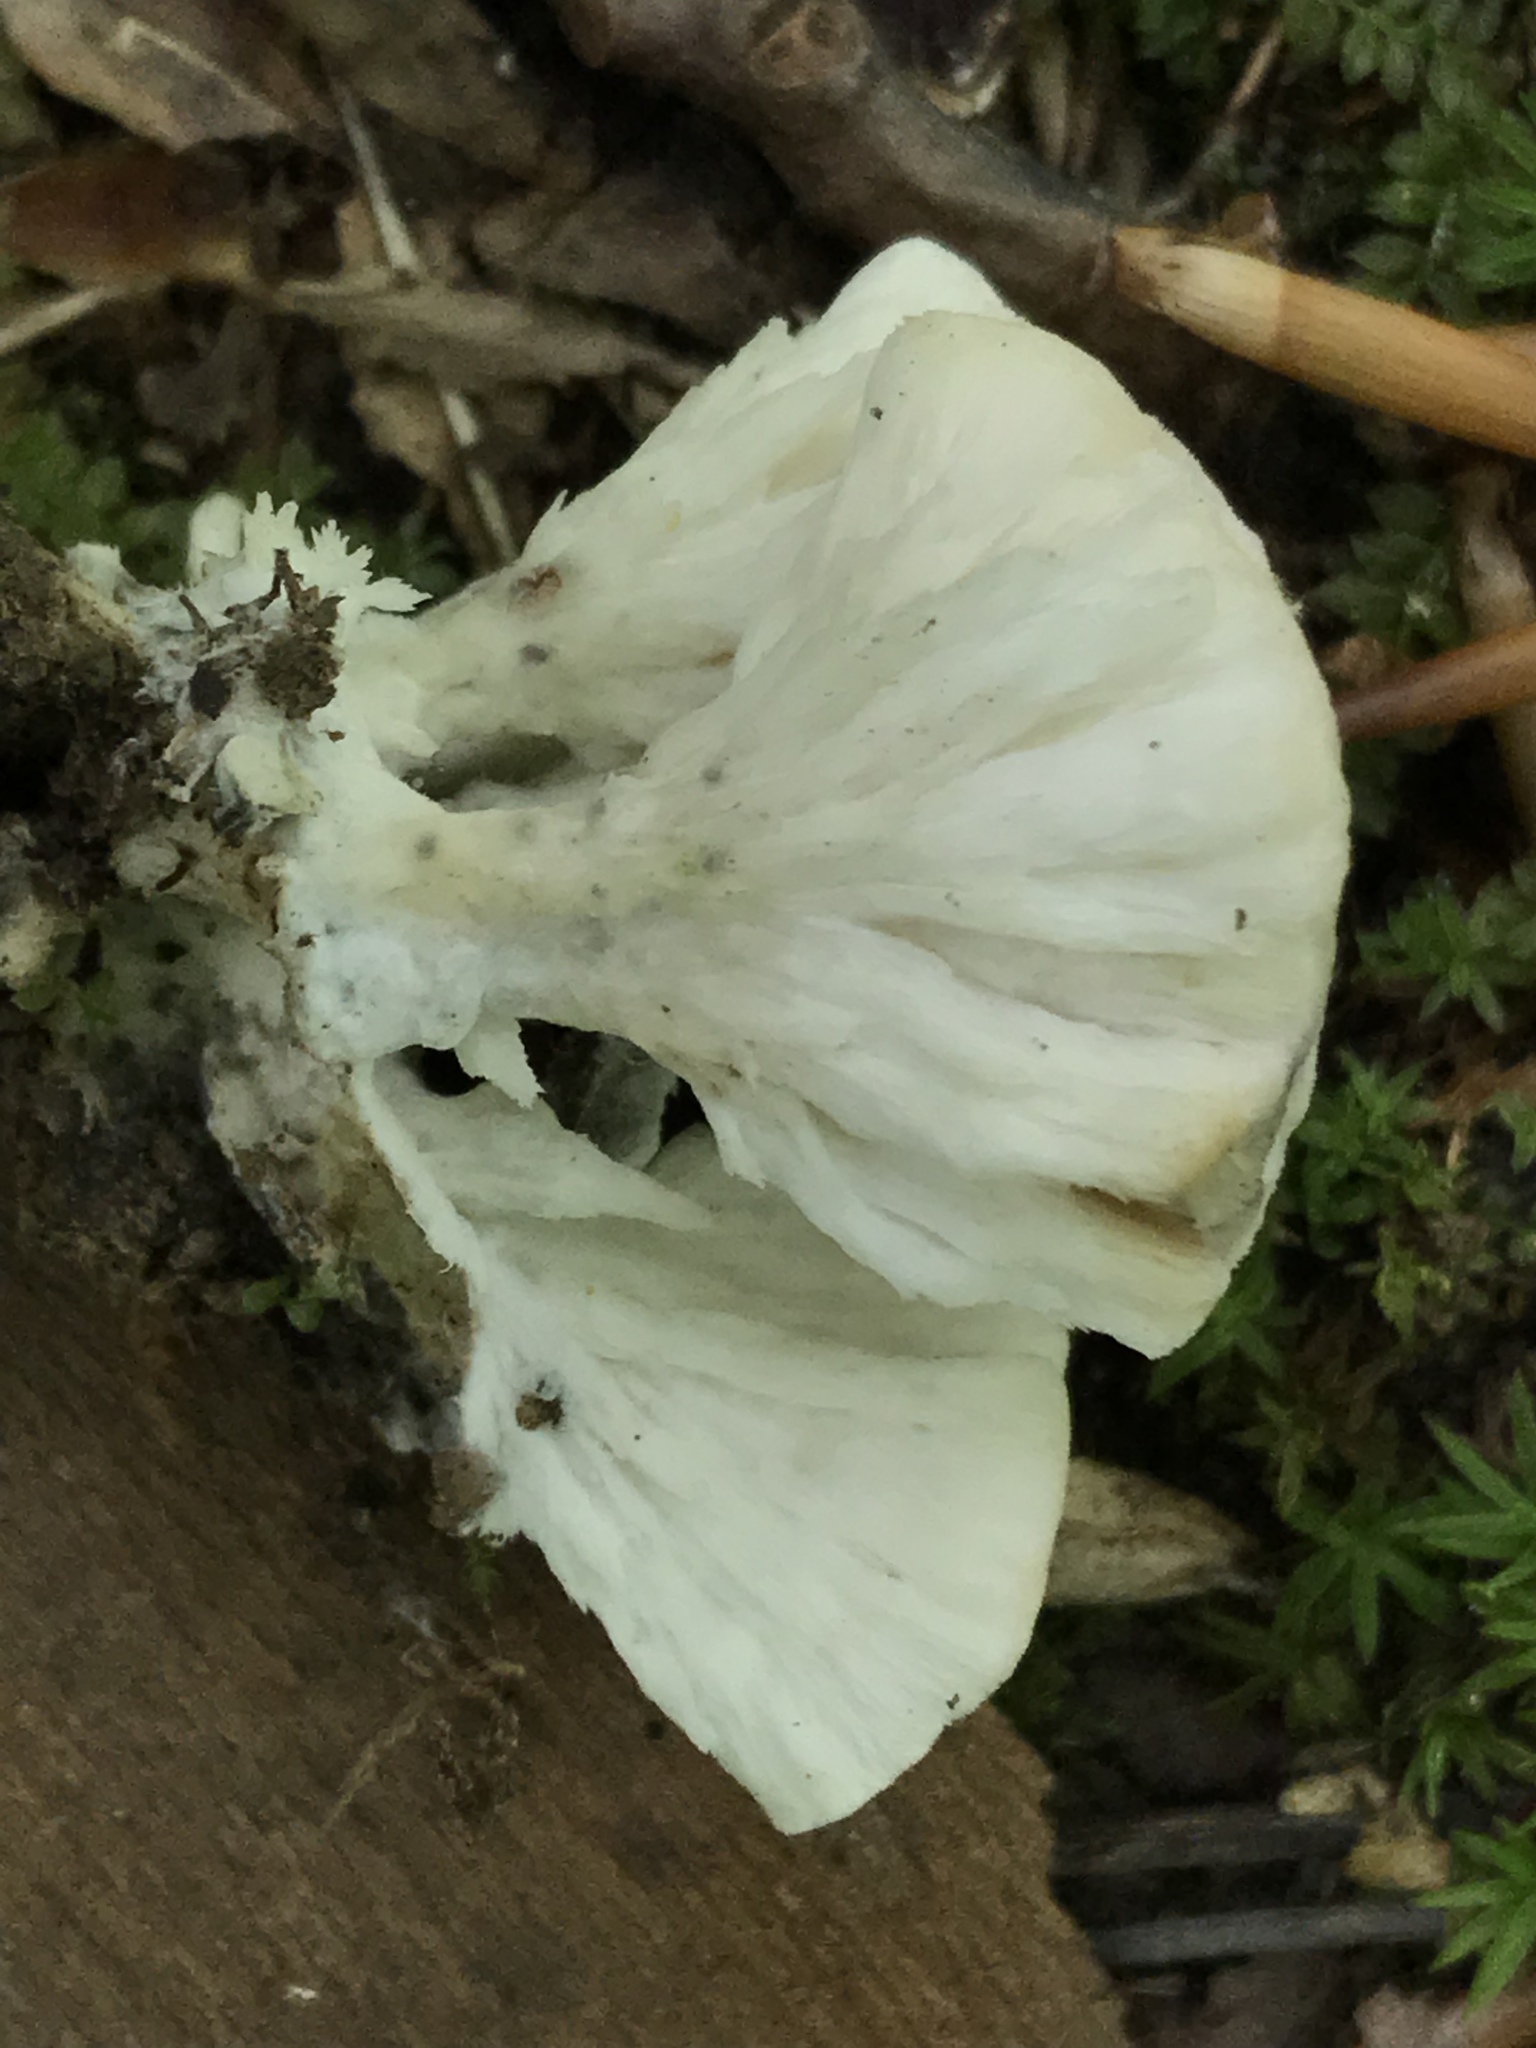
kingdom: Fungi
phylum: Basidiomycota
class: Agaricomycetes
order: Sebacinales
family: Sebacinaceae
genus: Sebacina
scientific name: Sebacina schweinitzii
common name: Jellied false coral fungus
